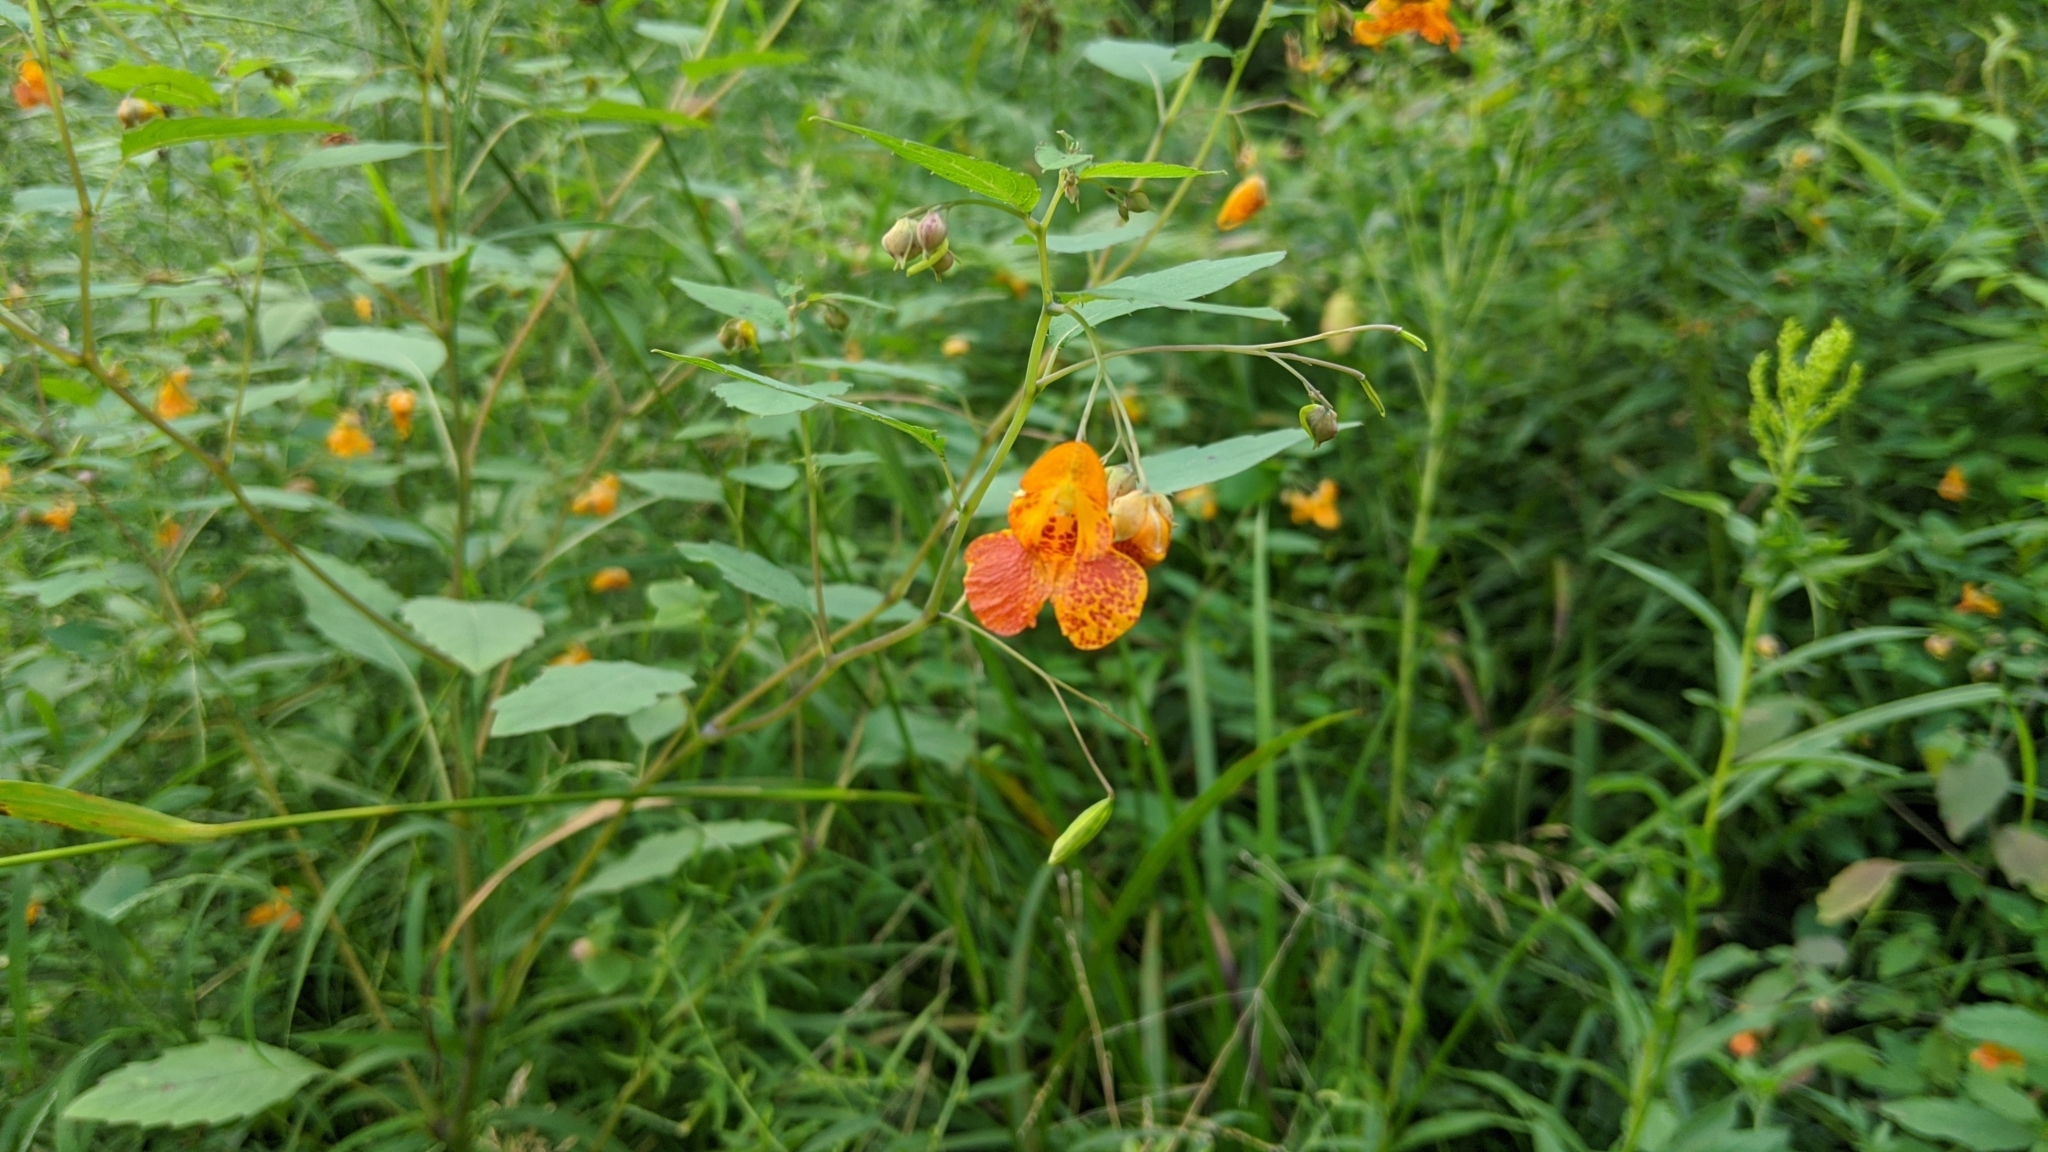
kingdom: Plantae
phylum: Tracheophyta
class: Magnoliopsida
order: Ericales
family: Balsaminaceae
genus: Impatiens
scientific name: Impatiens capensis
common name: Orange balsam
